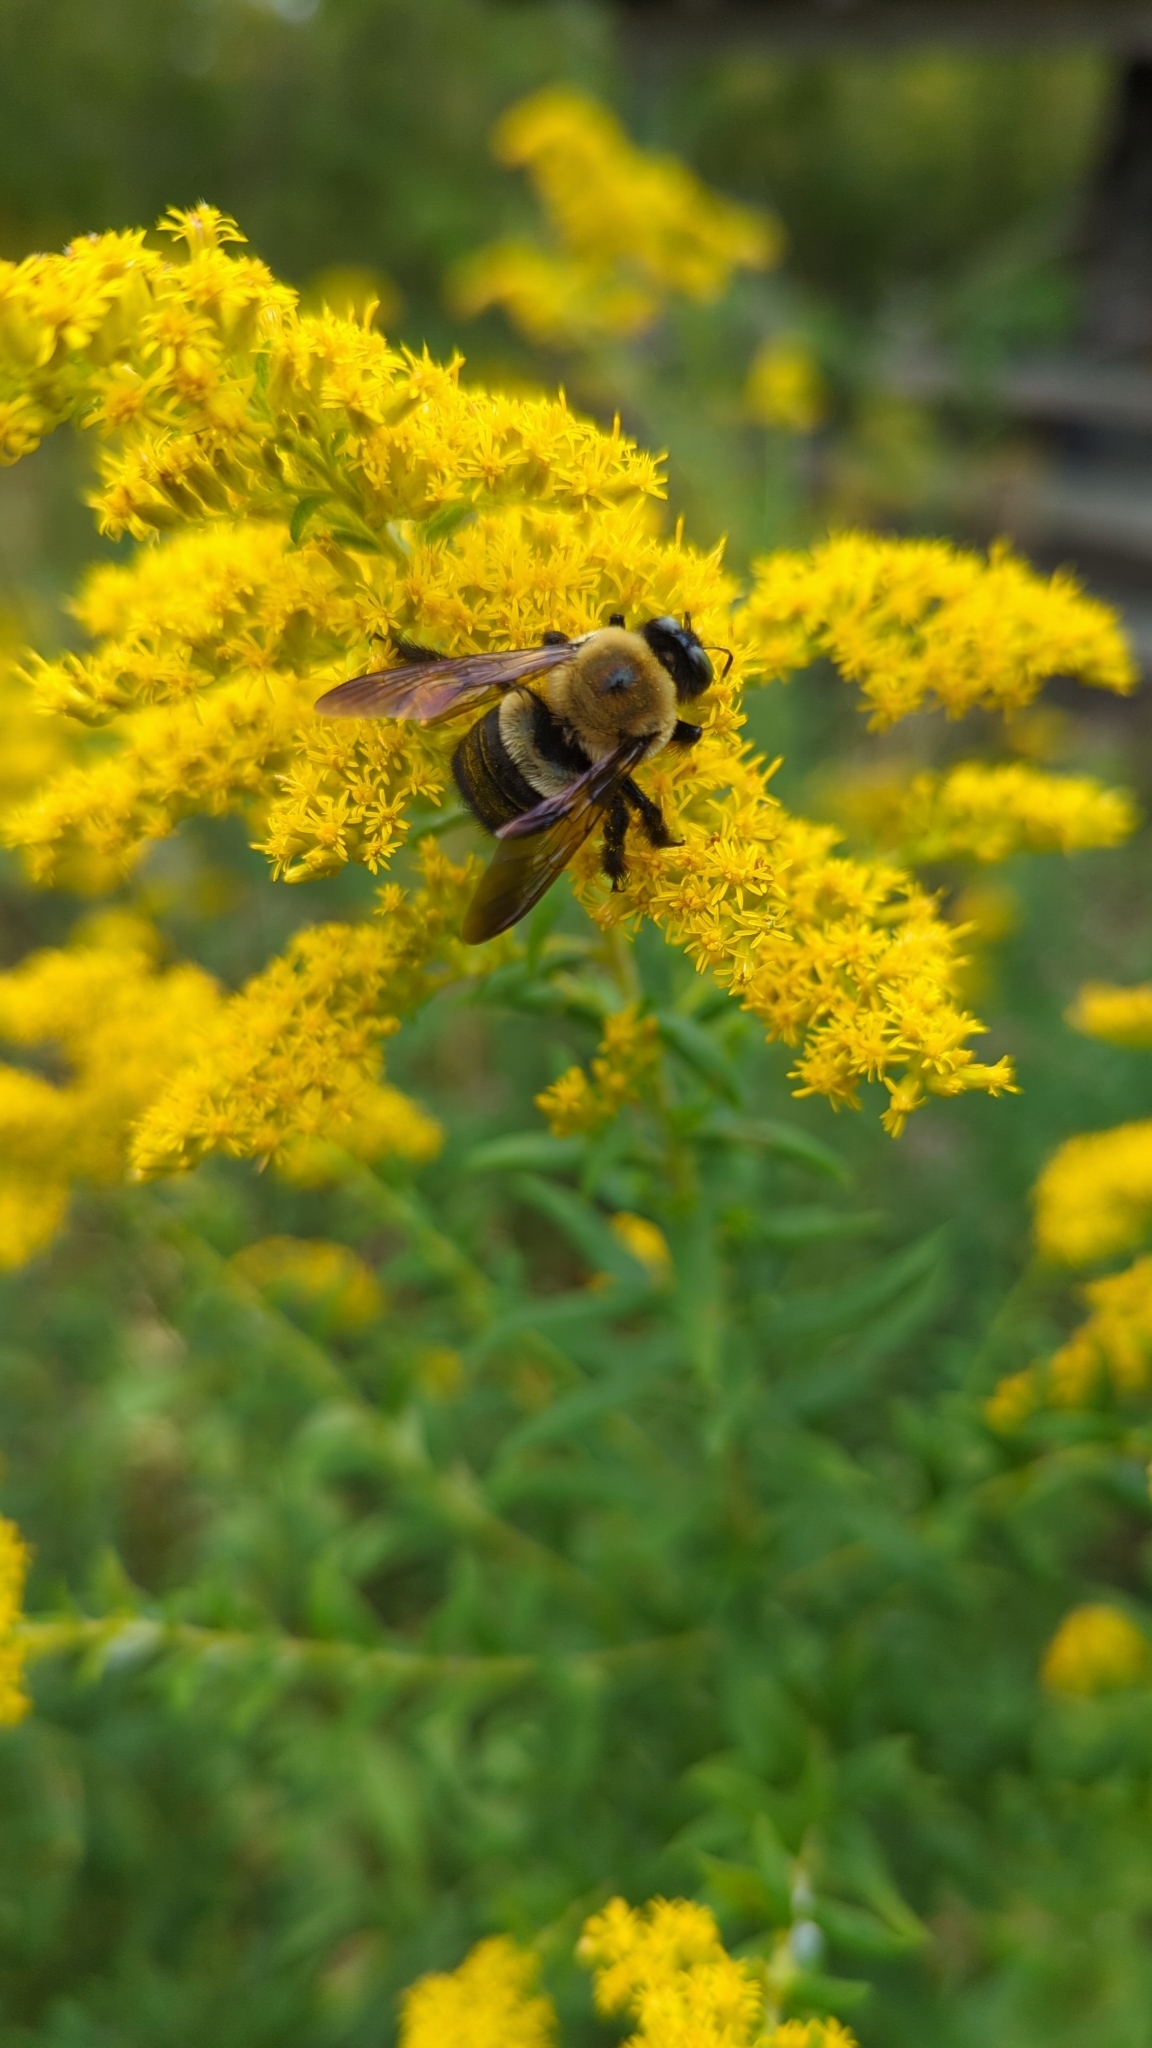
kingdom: Animalia
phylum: Arthropoda
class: Insecta
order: Hymenoptera
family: Apidae
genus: Xylocopa
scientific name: Xylocopa virginica
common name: Carpenter bee
